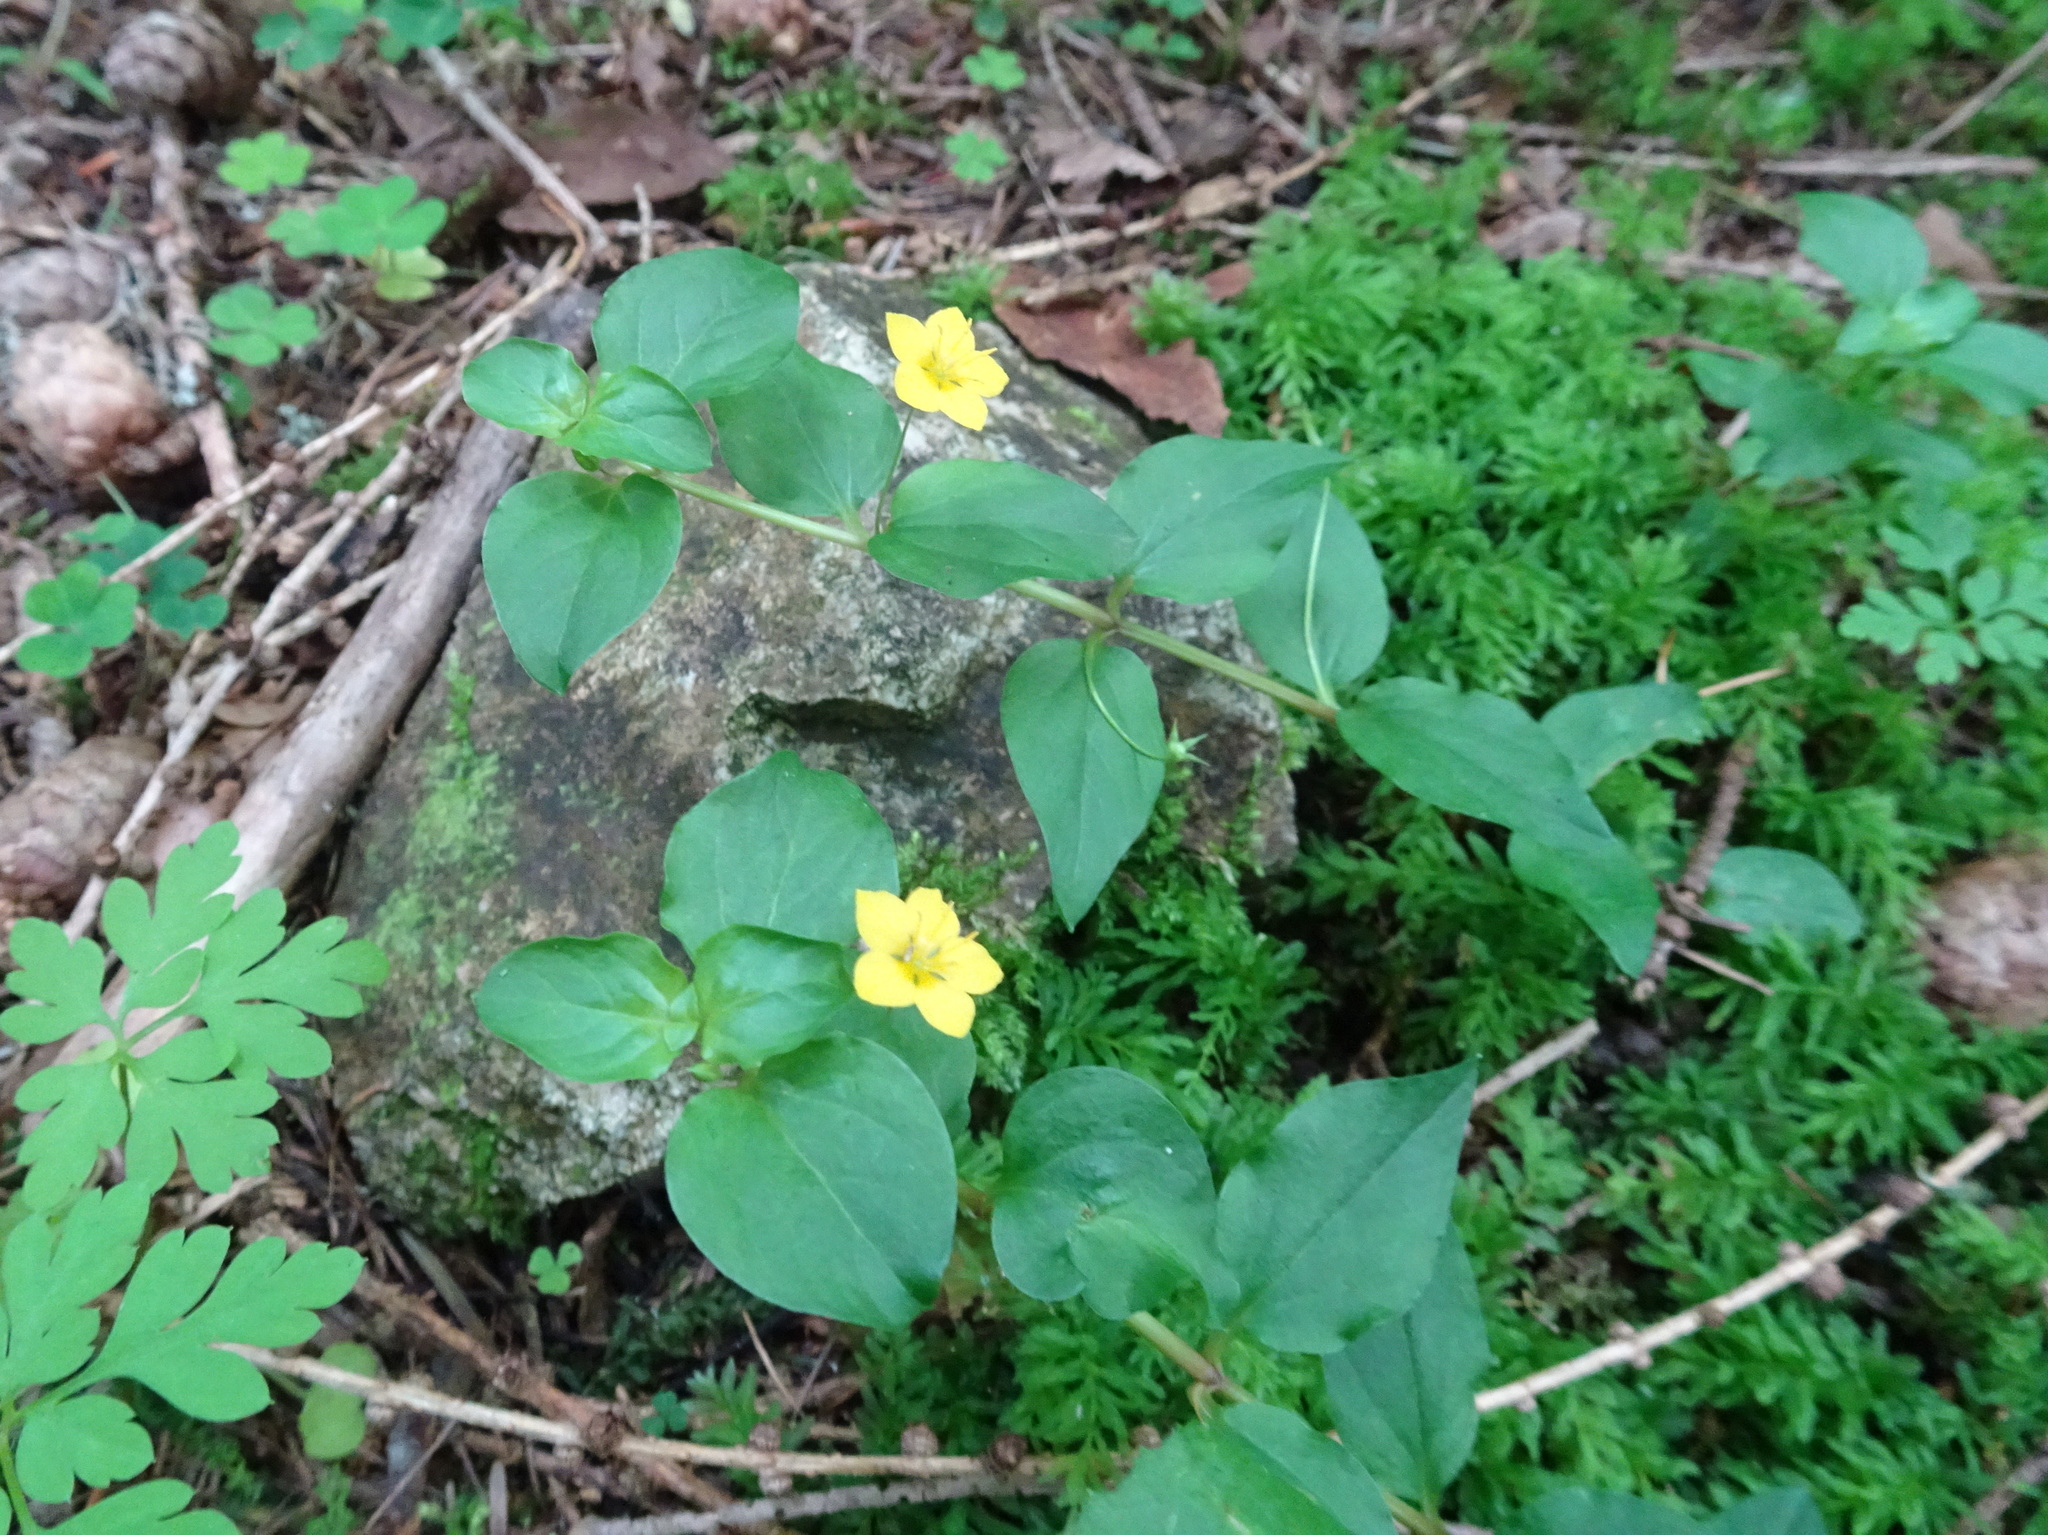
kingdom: Plantae
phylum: Tracheophyta
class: Magnoliopsida
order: Ericales
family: Primulaceae
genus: Lysimachia
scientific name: Lysimachia nemorum
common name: Yellow pimpernel
